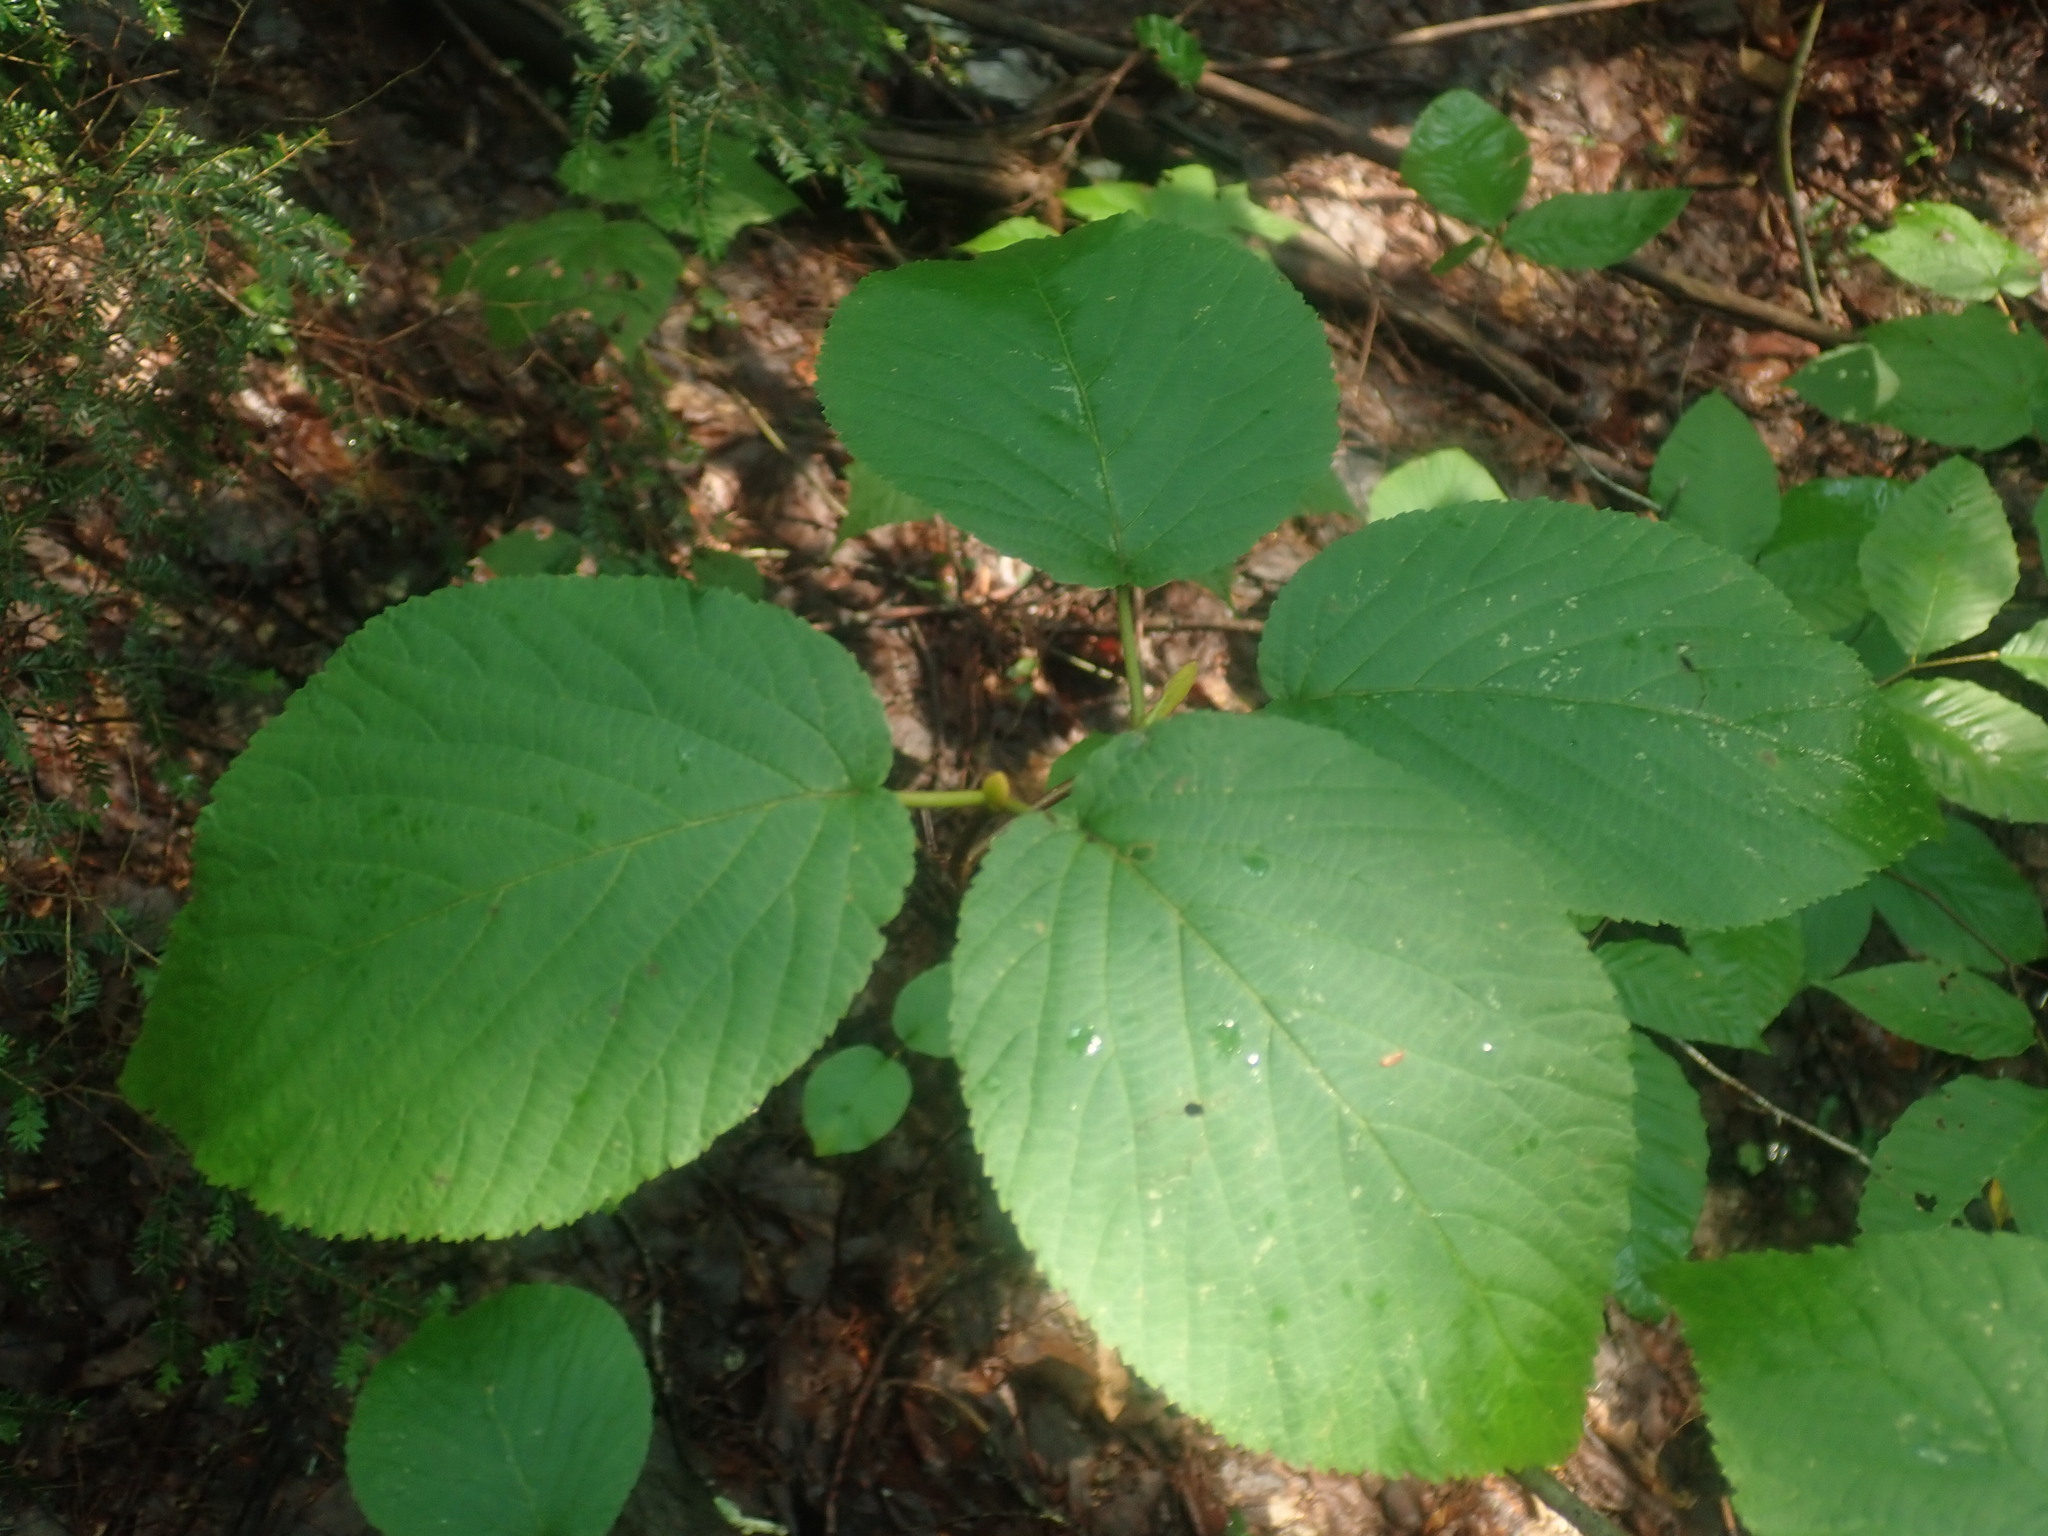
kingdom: Plantae
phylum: Tracheophyta
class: Magnoliopsida
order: Dipsacales
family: Viburnaceae
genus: Viburnum
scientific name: Viburnum lantanoides
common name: Hobblebush
